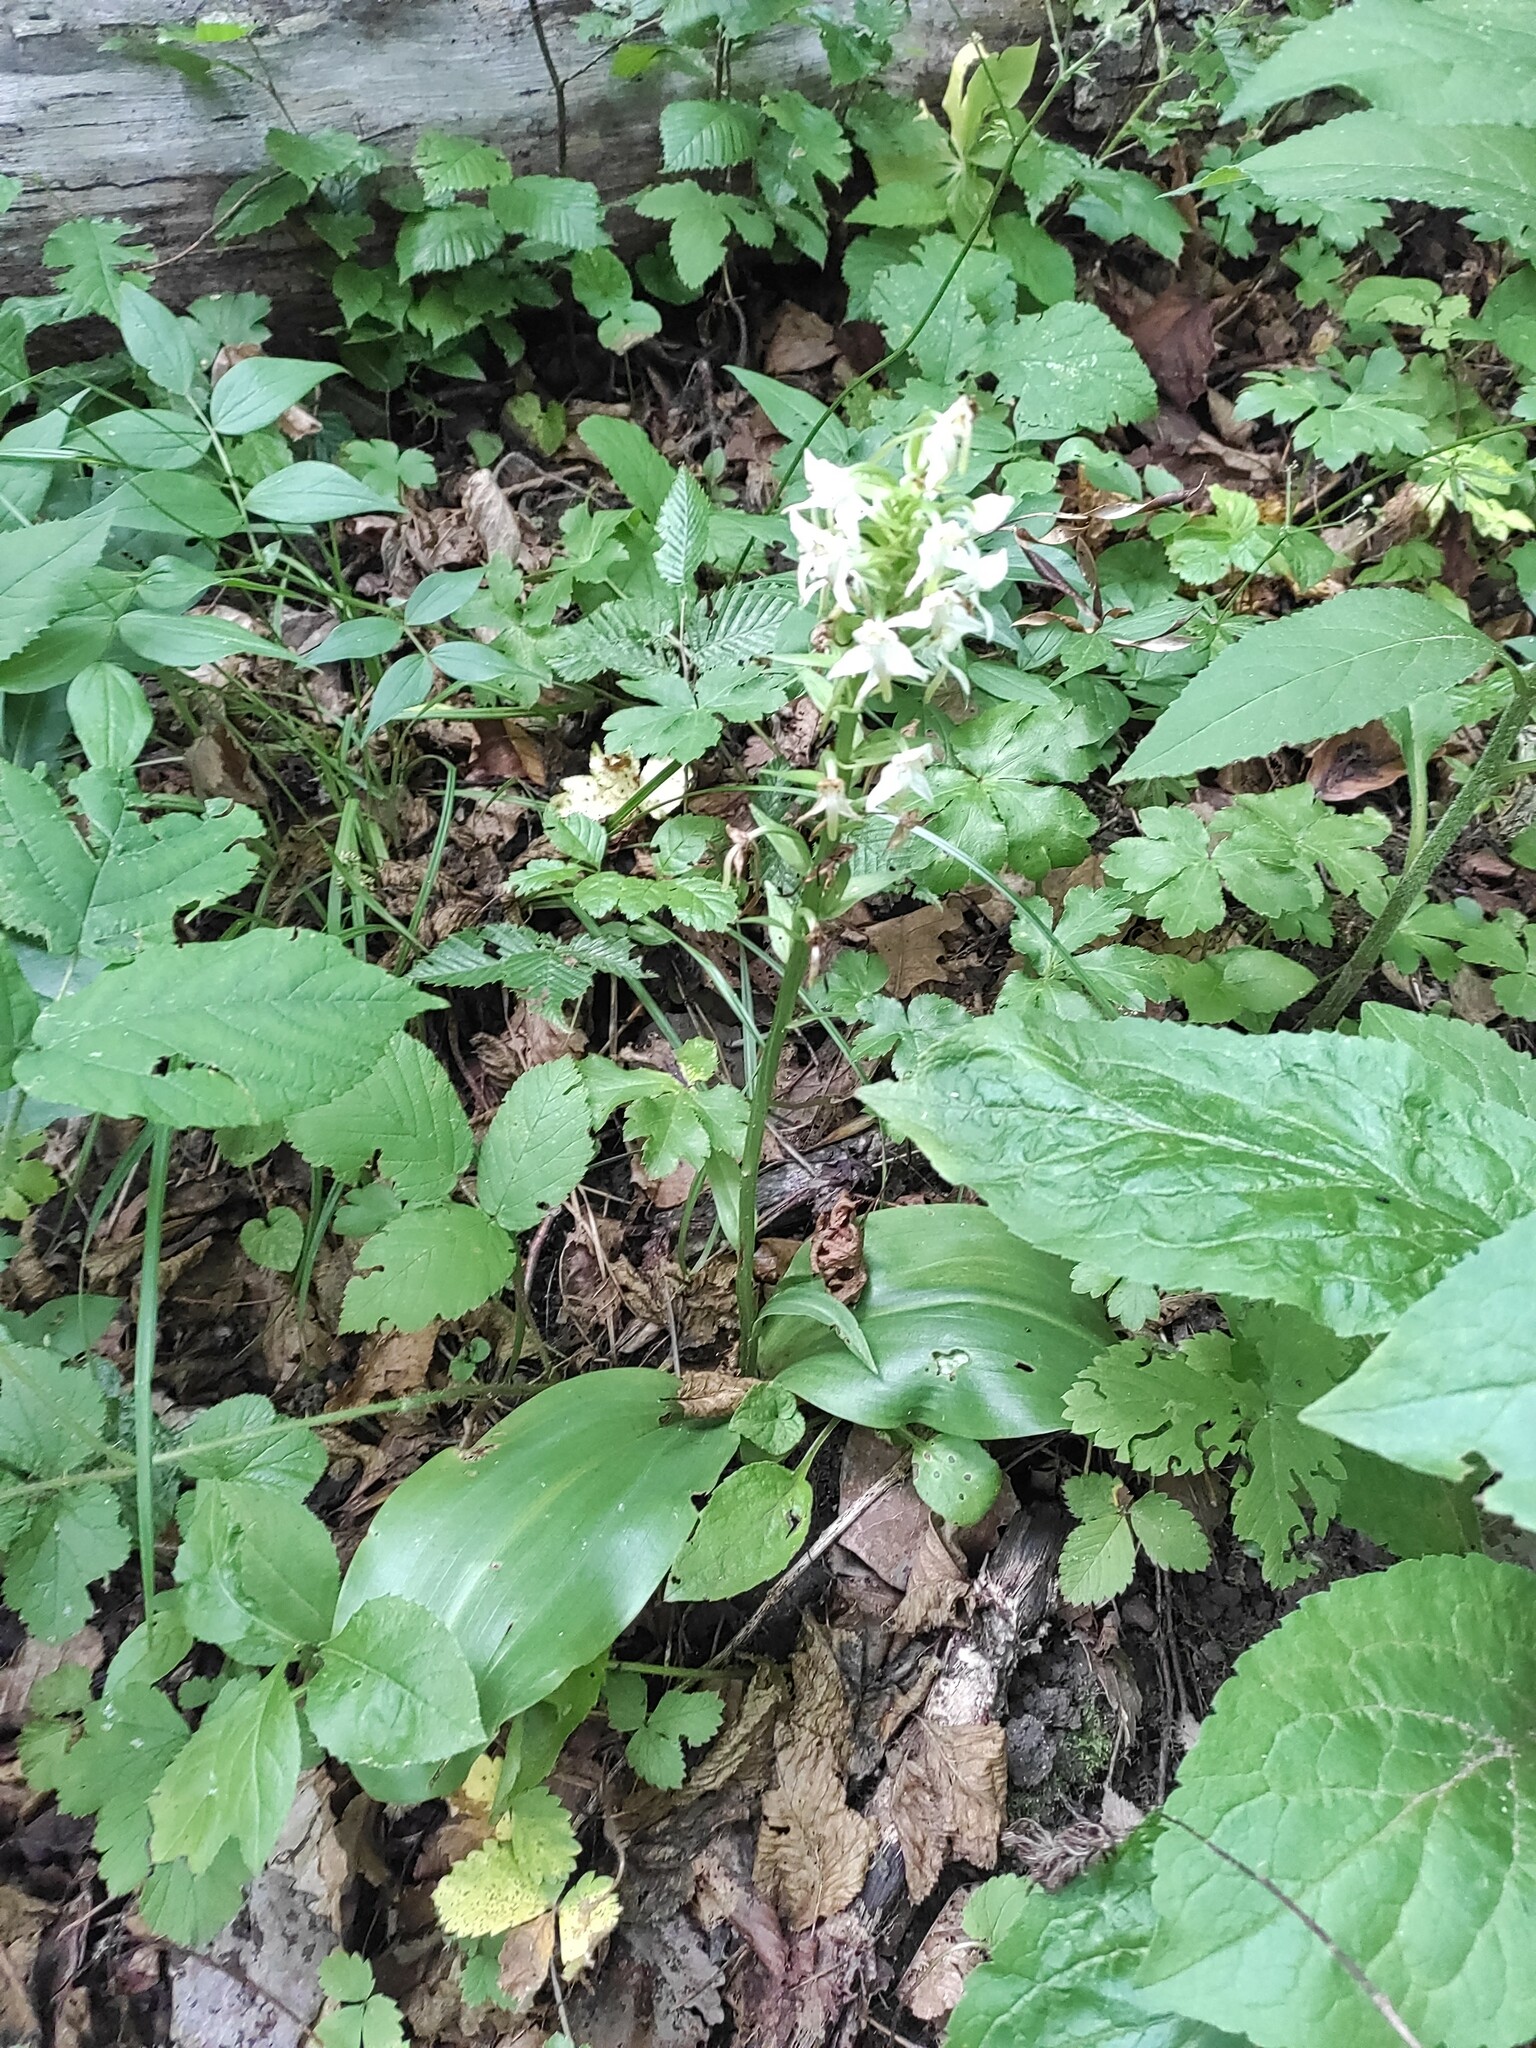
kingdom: Plantae
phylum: Tracheophyta
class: Liliopsida
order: Asparagales
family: Orchidaceae
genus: Platanthera
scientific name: Platanthera chlorantha
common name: Greater butterfly-orchid
